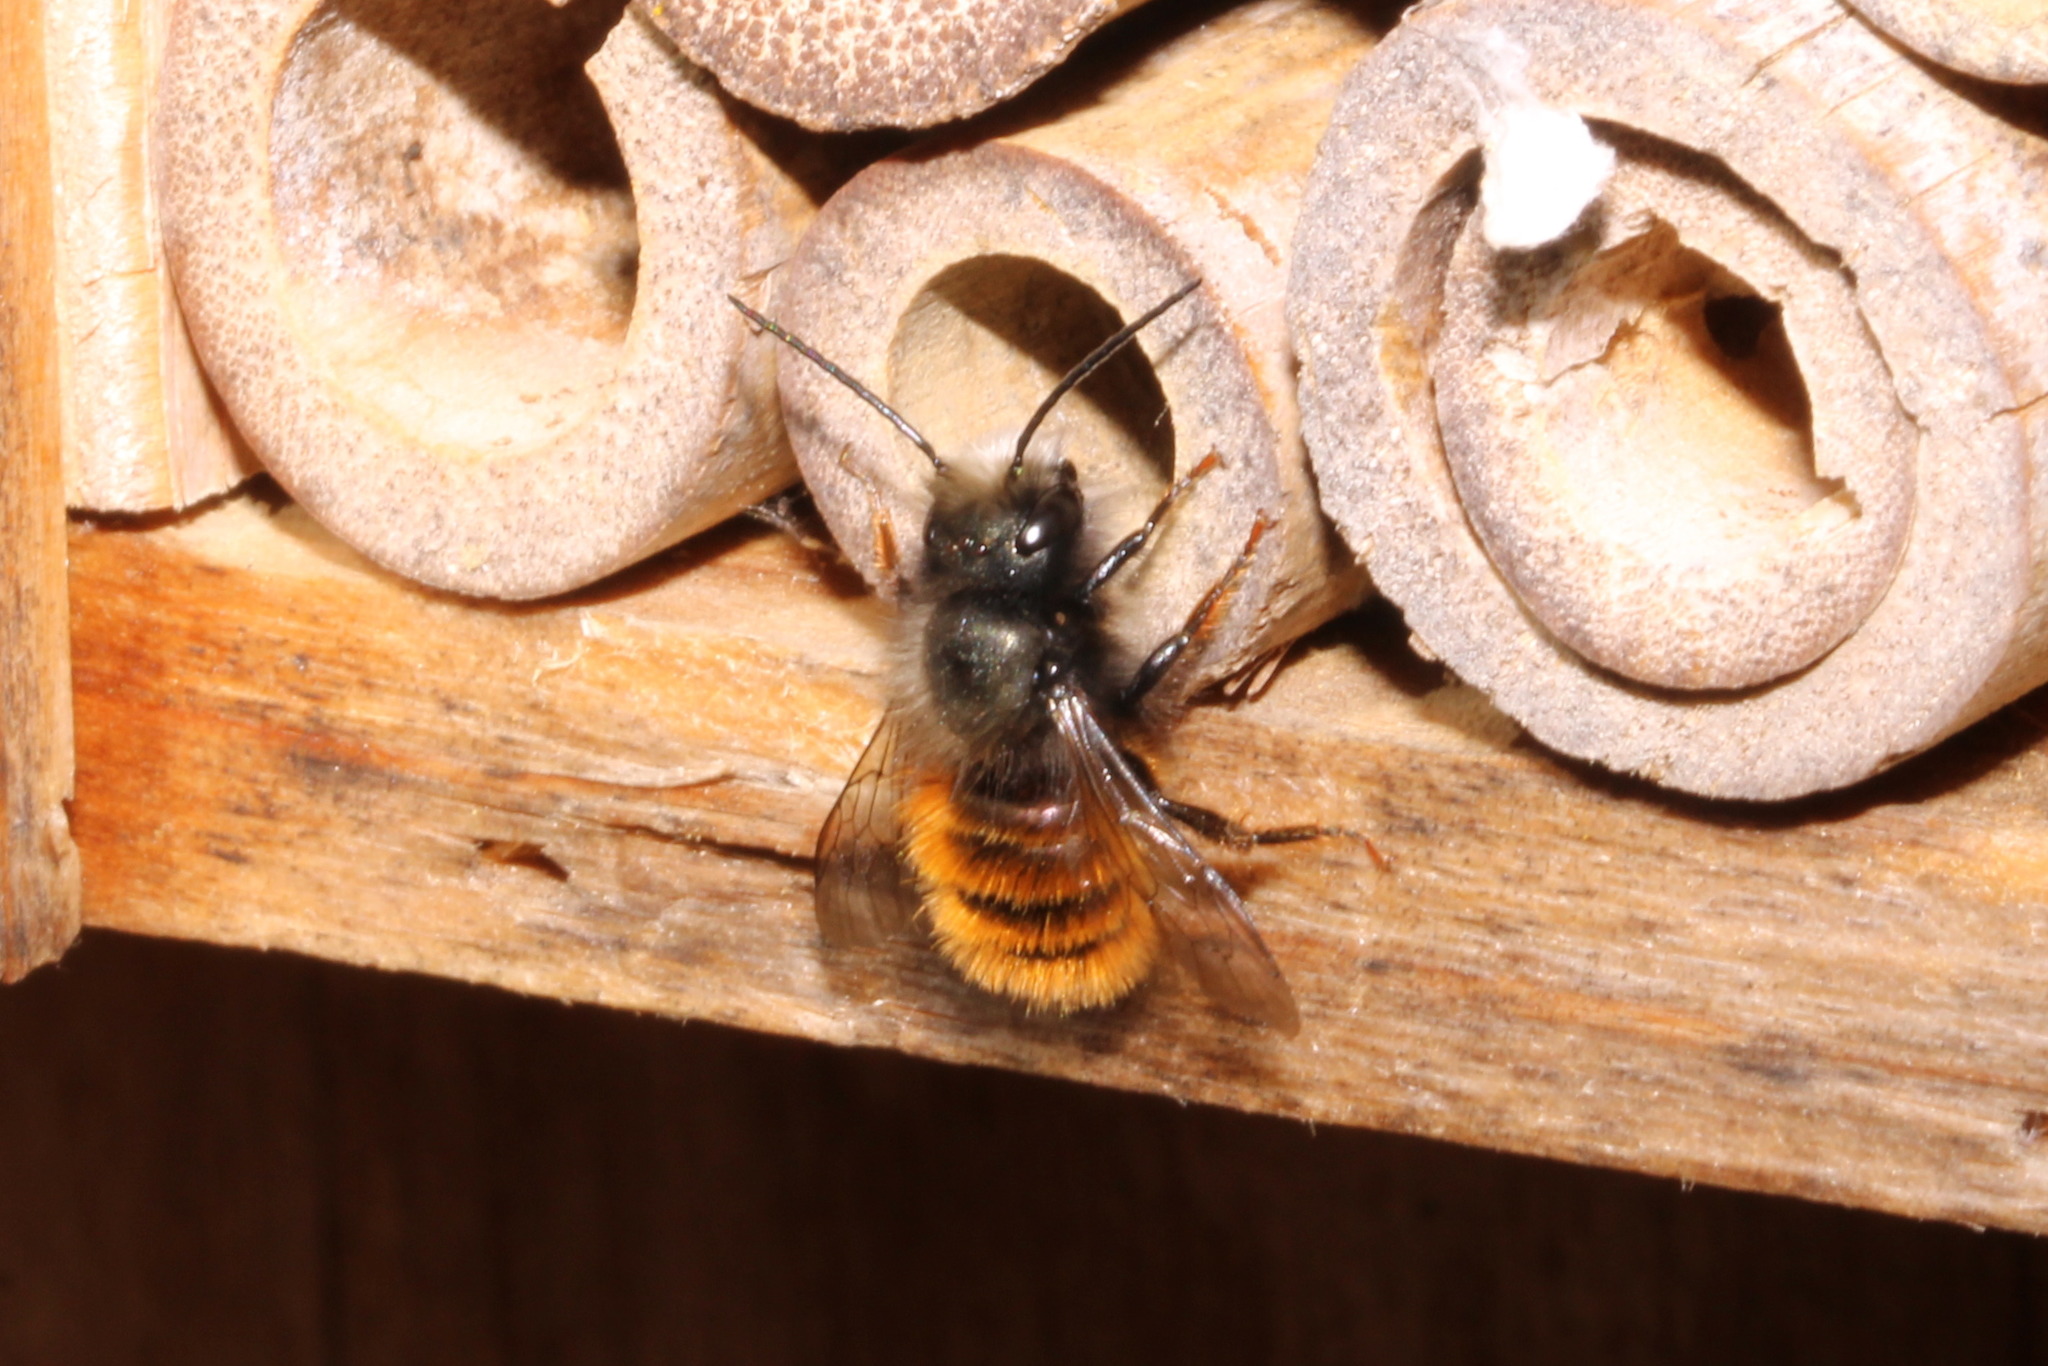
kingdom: Animalia
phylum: Arthropoda
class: Insecta
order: Hymenoptera
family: Megachilidae
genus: Osmia
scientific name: Osmia cornuta
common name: Mason bee
